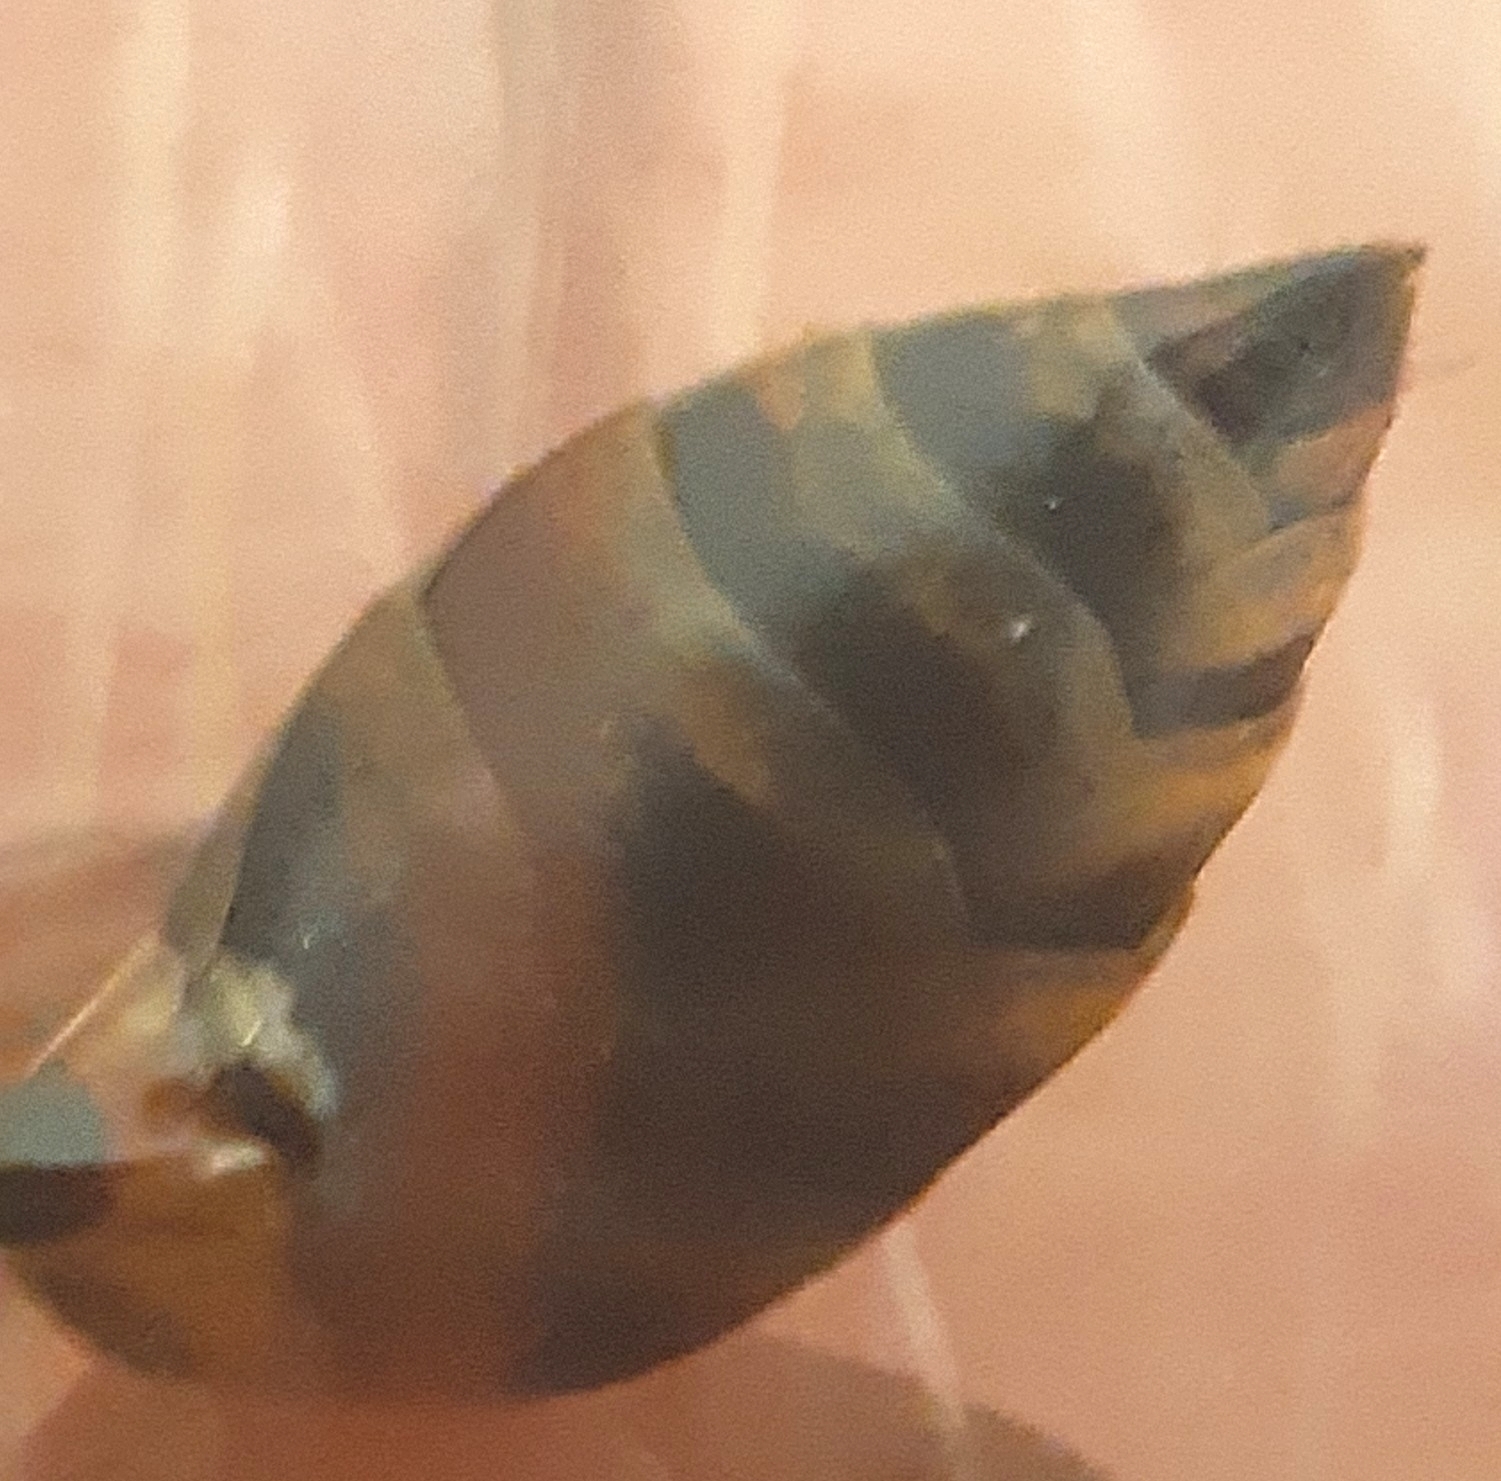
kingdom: Animalia
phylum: Arthropoda
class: Insecta
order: Hymenoptera
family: Sphecidae
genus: Sceliphron
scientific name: Sceliphron curvatum
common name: Pèlopèe
